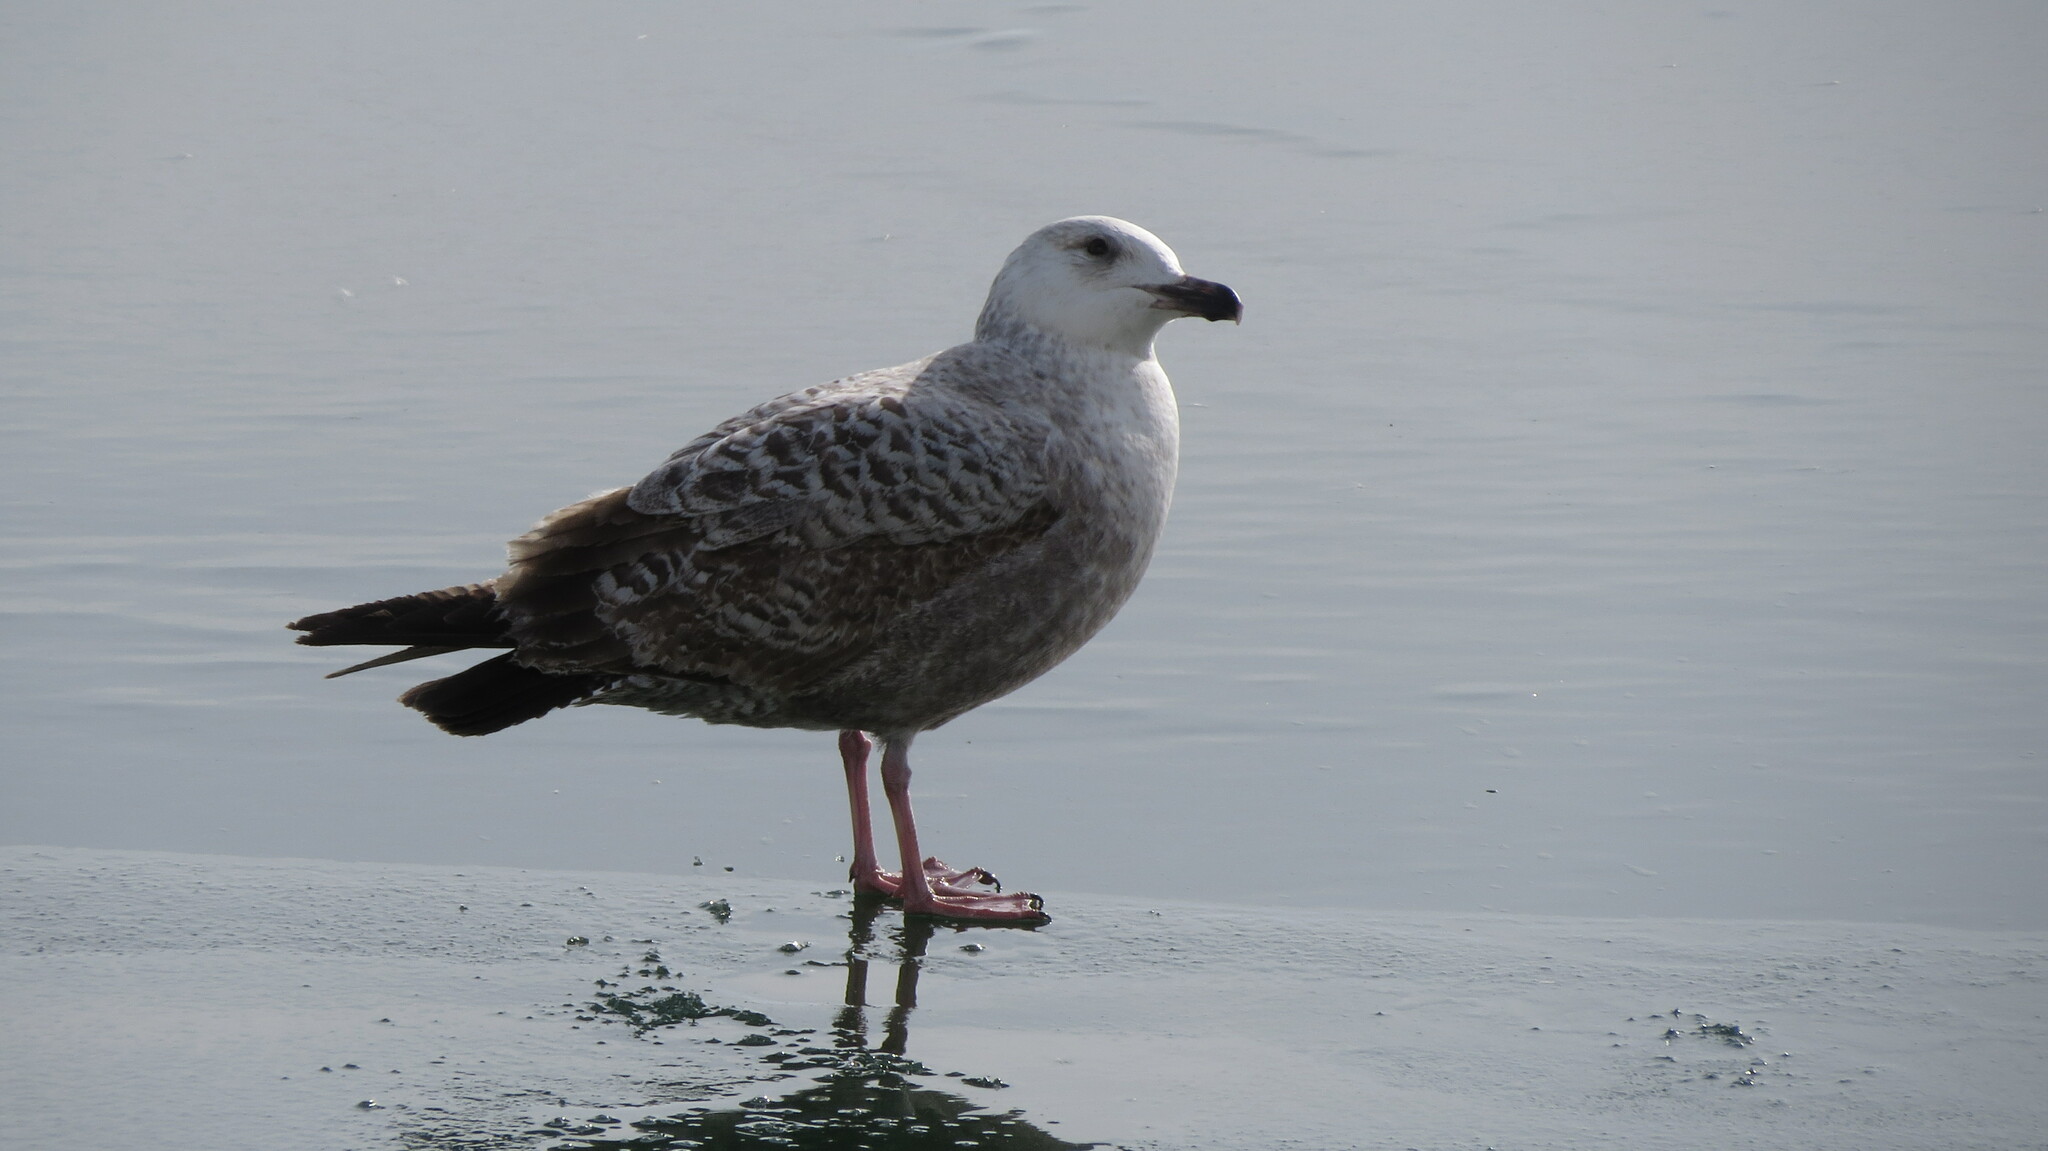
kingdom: Animalia
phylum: Chordata
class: Aves
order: Charadriiformes
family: Laridae
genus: Larus
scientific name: Larus smithsonianus
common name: American herring gull
